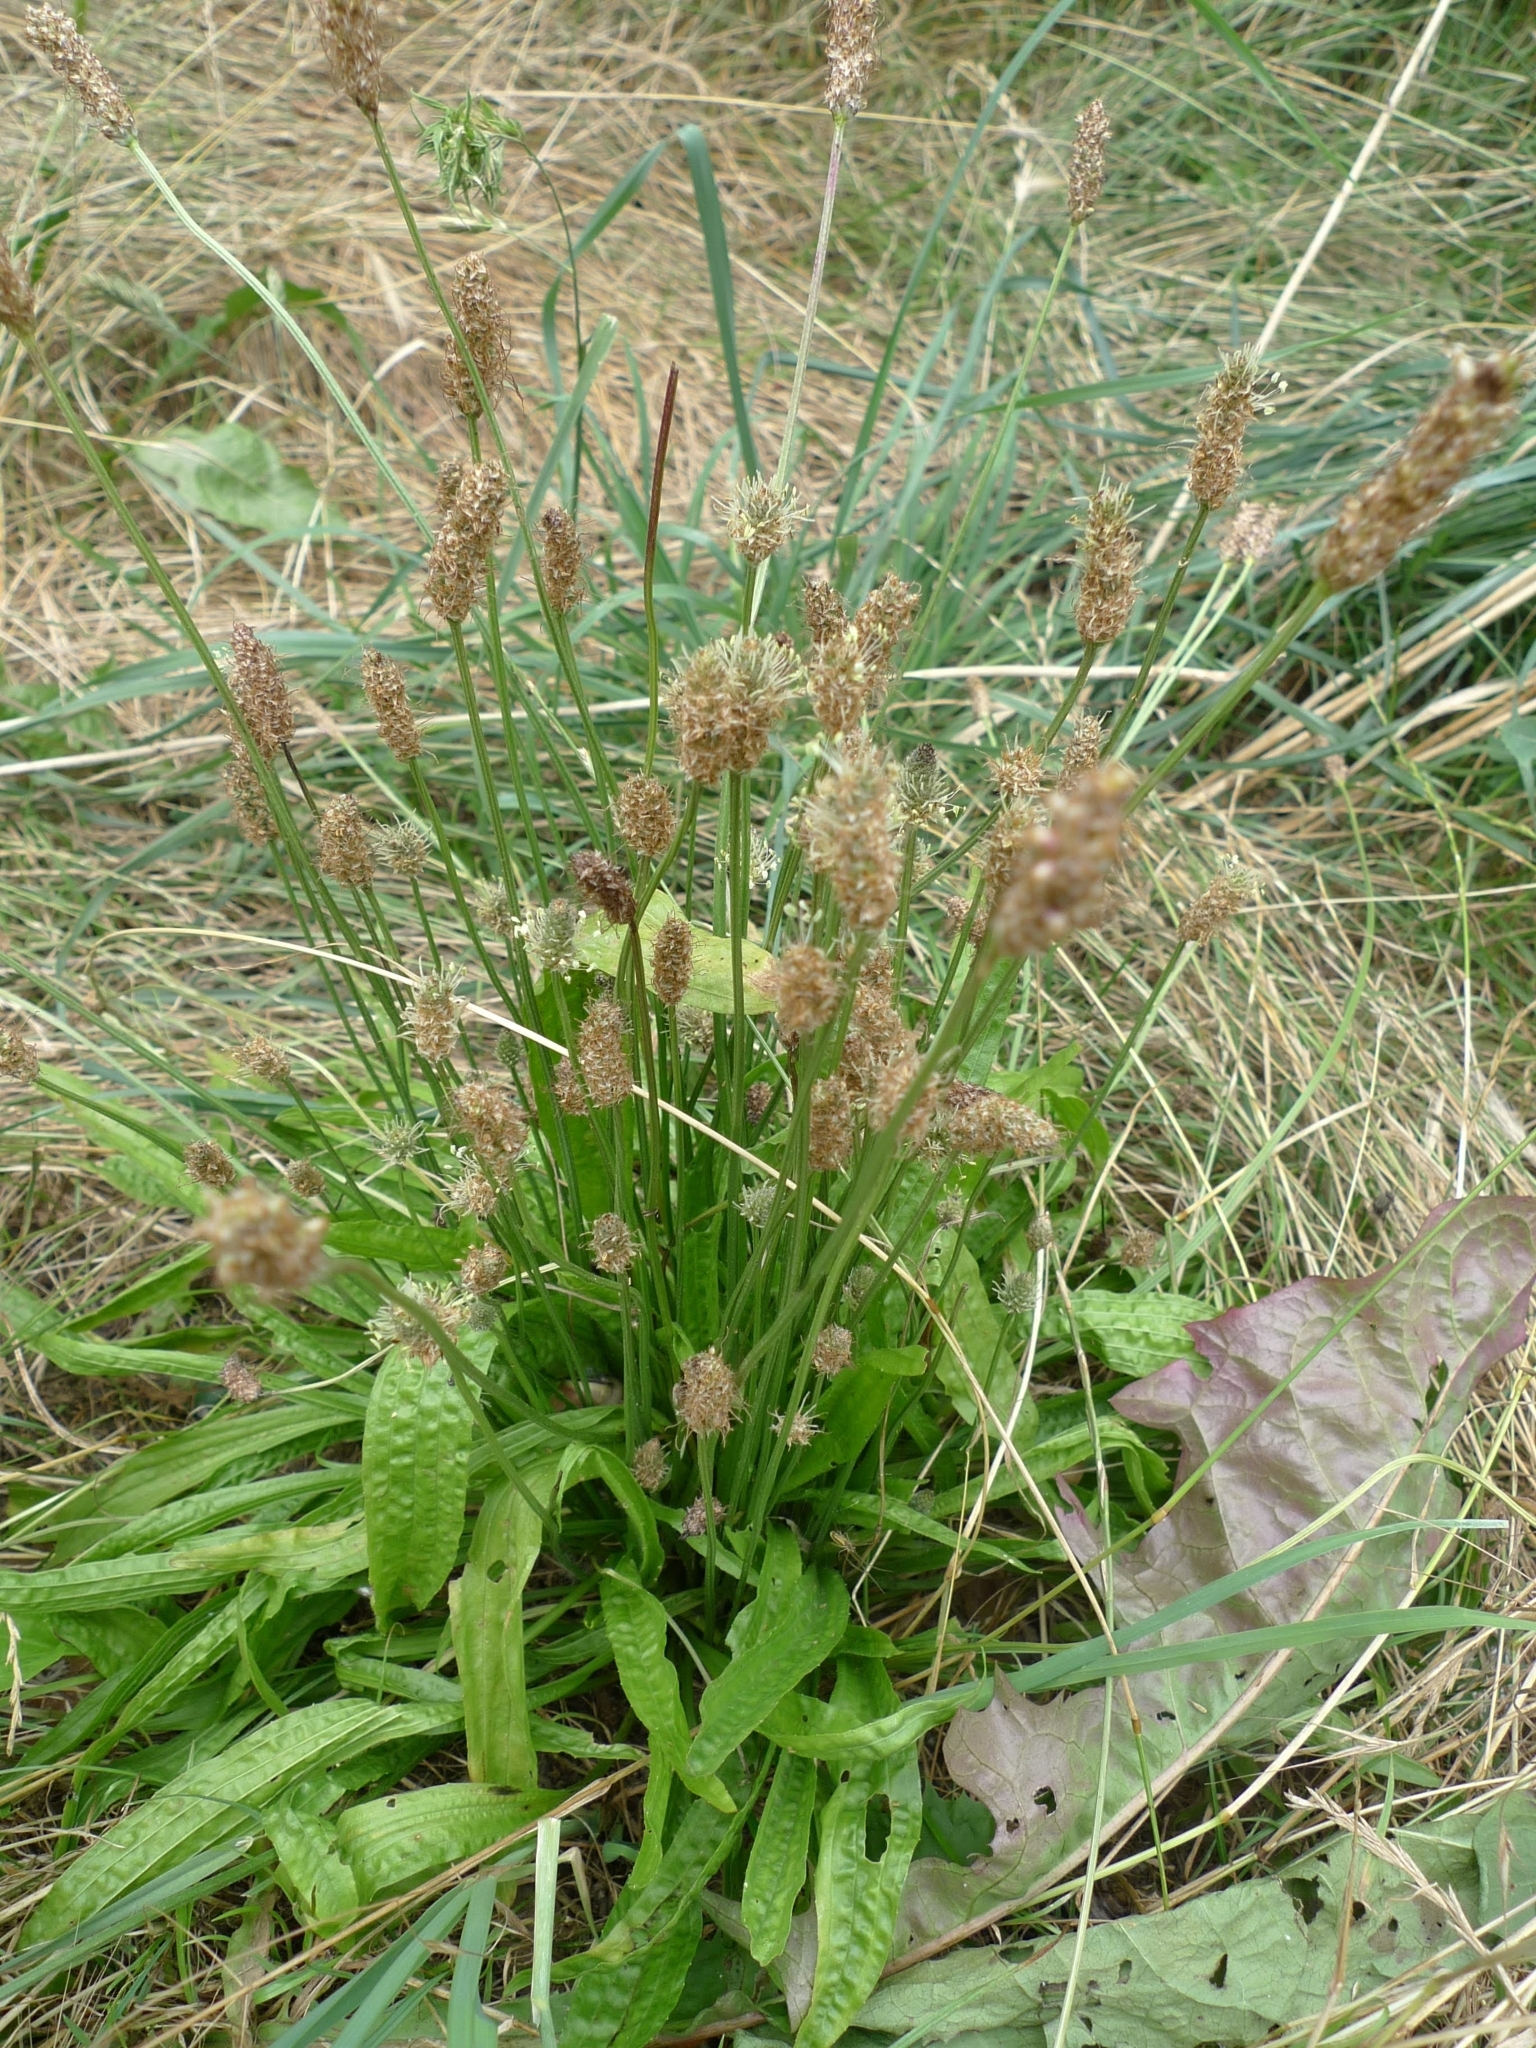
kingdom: Plantae
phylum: Tracheophyta
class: Magnoliopsida
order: Lamiales
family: Plantaginaceae
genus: Plantago
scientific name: Plantago lanceolata
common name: Ribwort plantain
